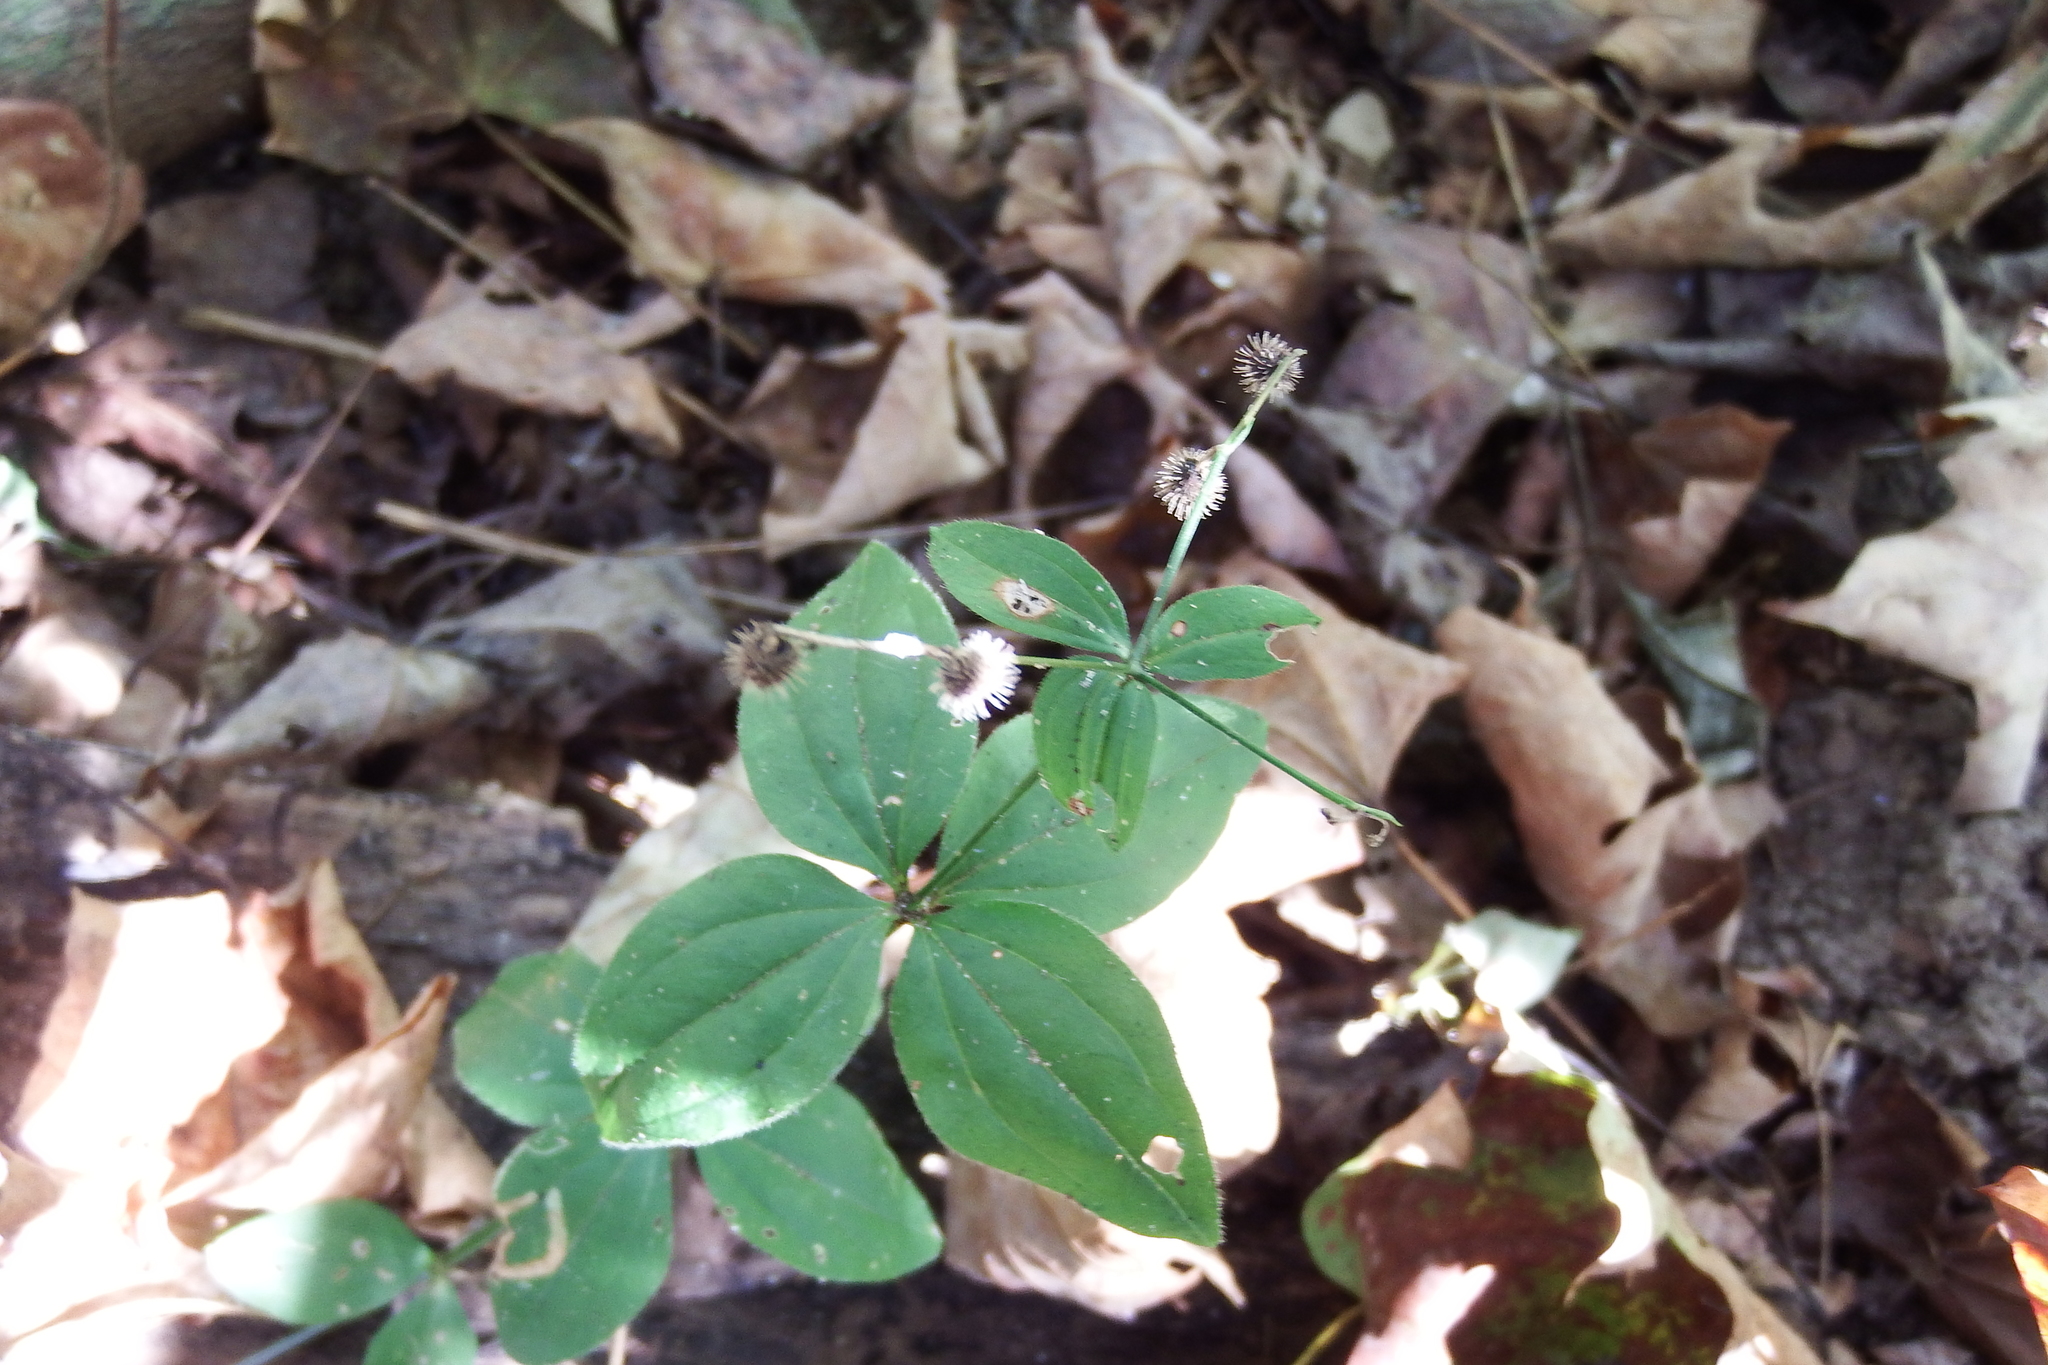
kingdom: Plantae
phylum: Tracheophyta
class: Magnoliopsida
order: Gentianales
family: Rubiaceae
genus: Galium
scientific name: Galium circaezans
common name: Forest bedstraw
